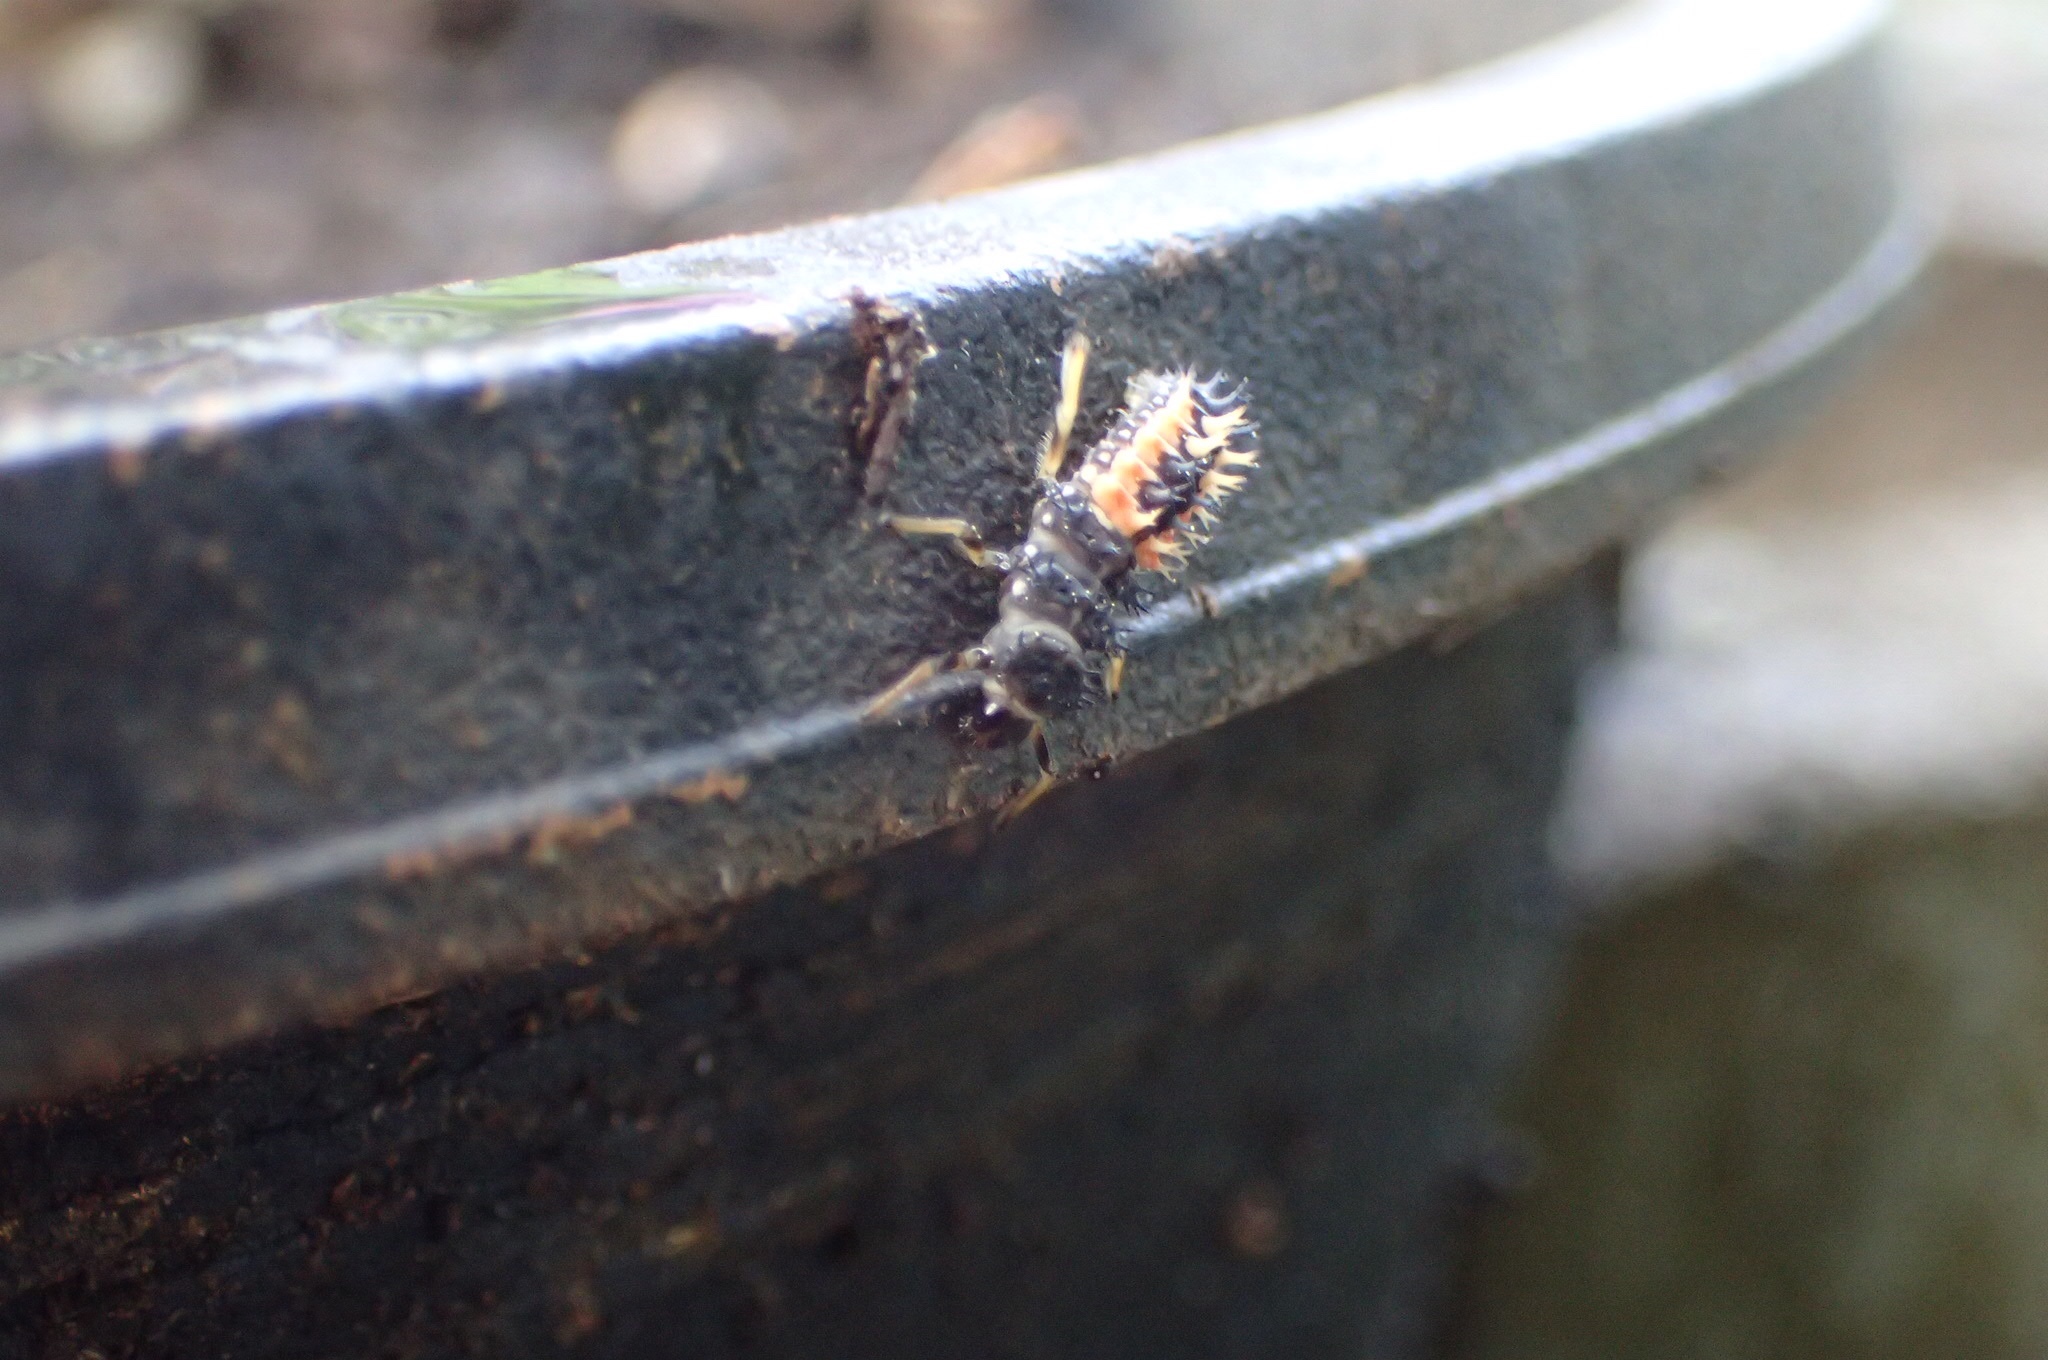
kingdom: Animalia
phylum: Arthropoda
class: Insecta
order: Coleoptera
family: Coccinellidae
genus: Harmonia
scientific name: Harmonia axyridis
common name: Harlequin ladybird
